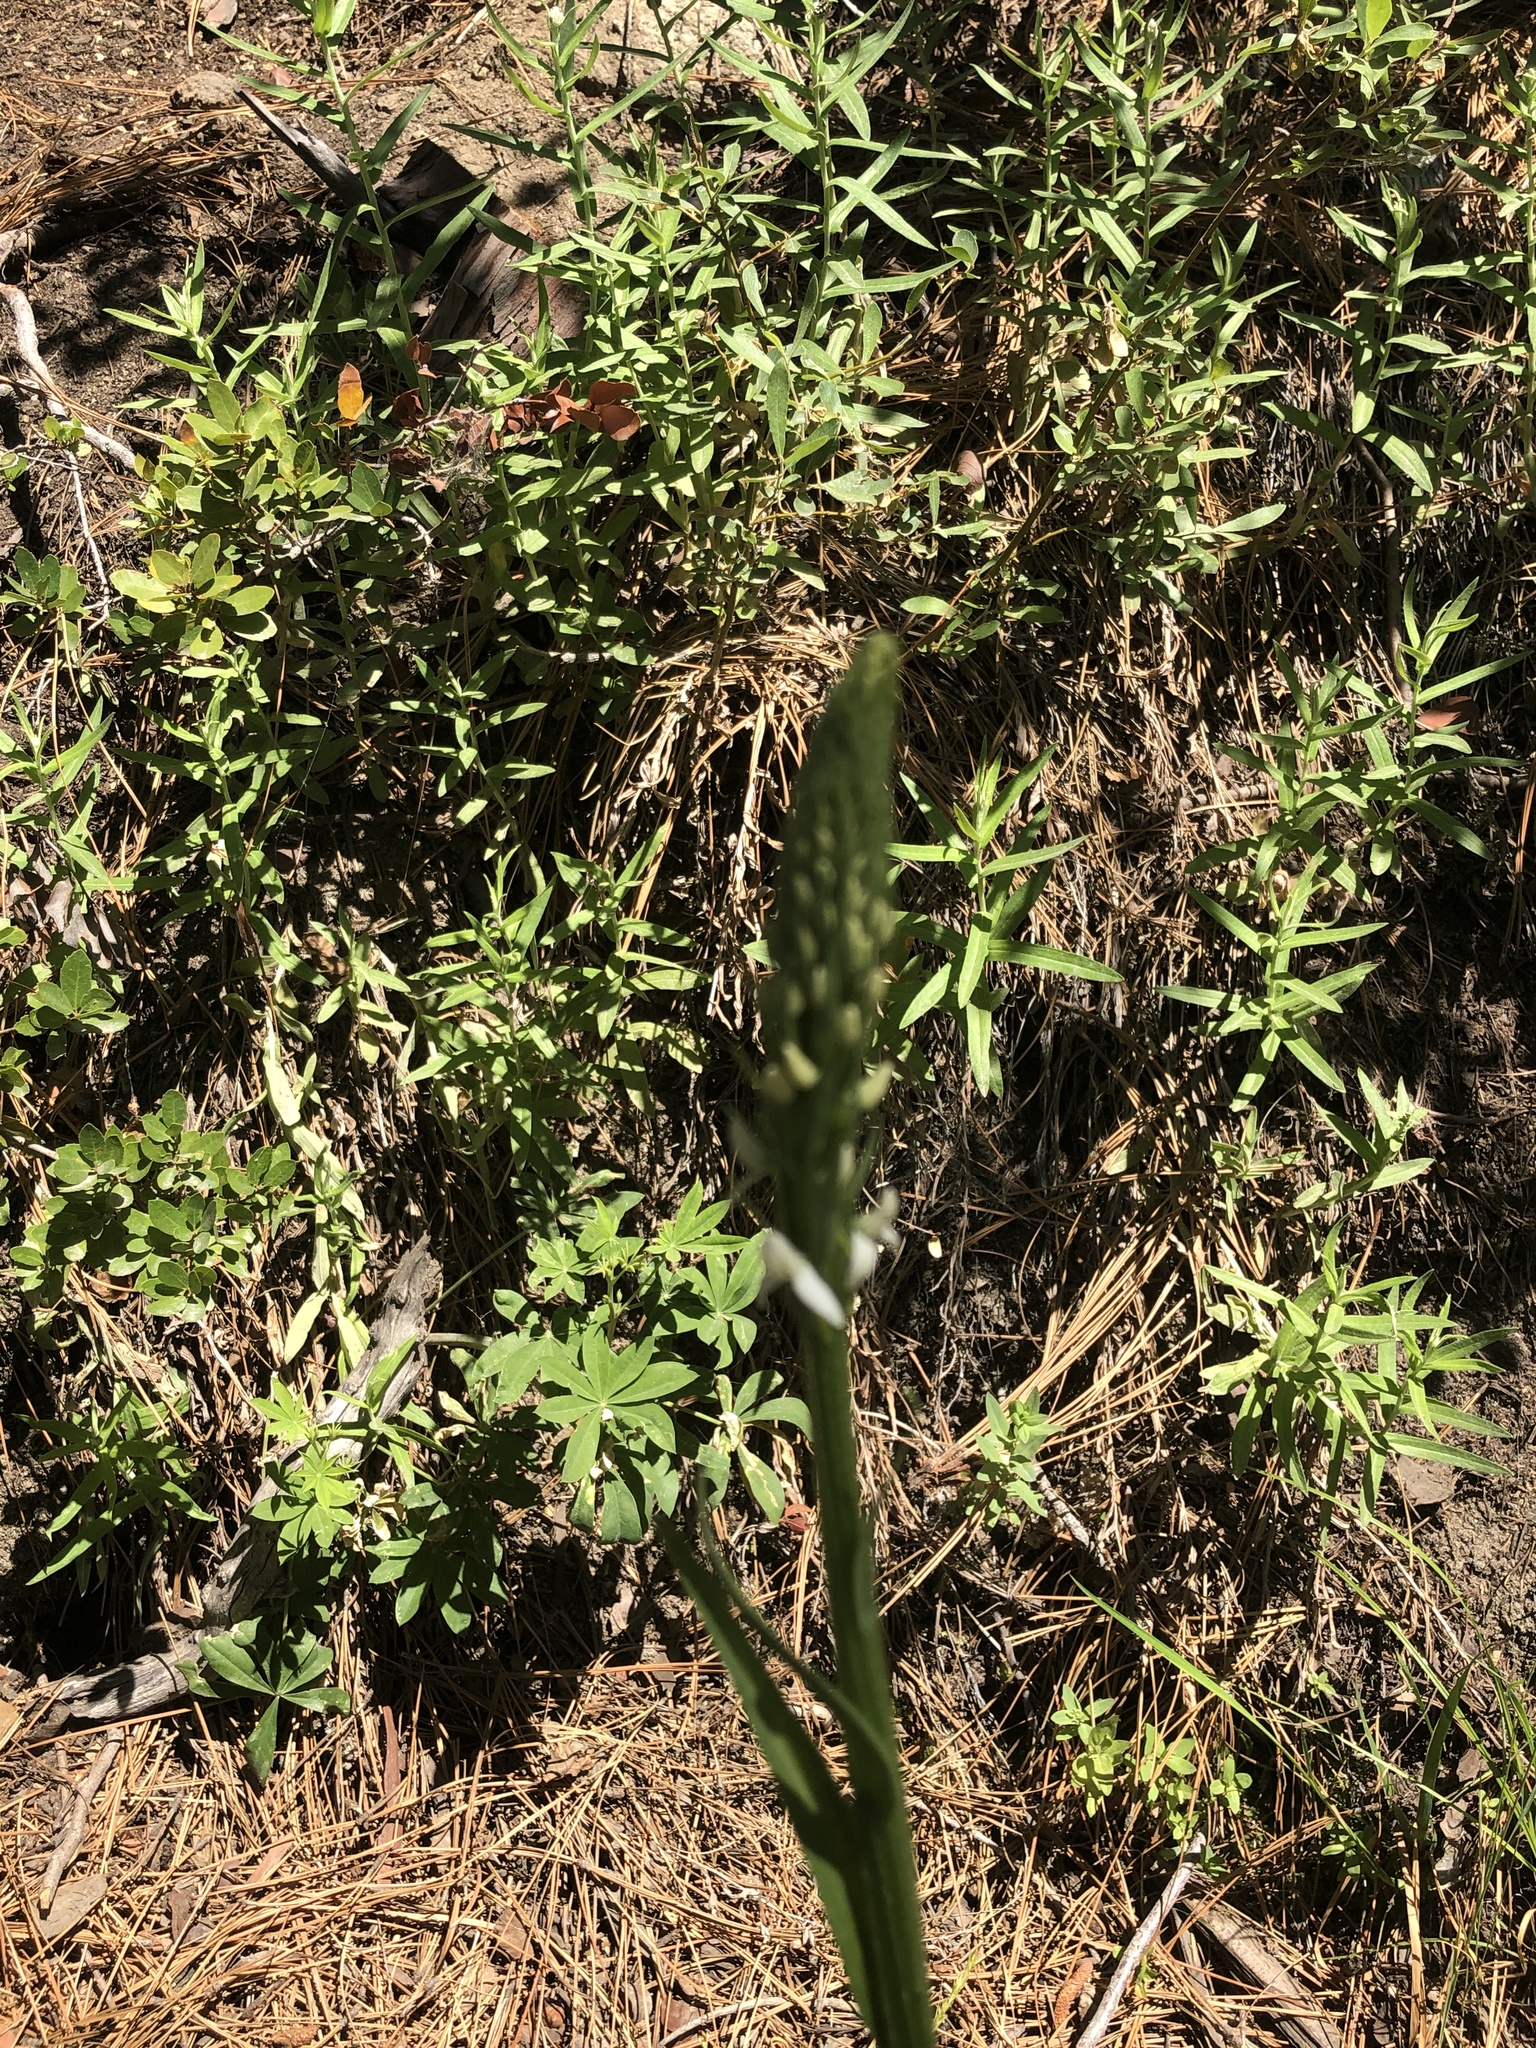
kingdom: Plantae
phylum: Tracheophyta
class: Liliopsida
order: Asparagales
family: Orchidaceae
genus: Platanthera
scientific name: Platanthera dilatata
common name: Bog candles
